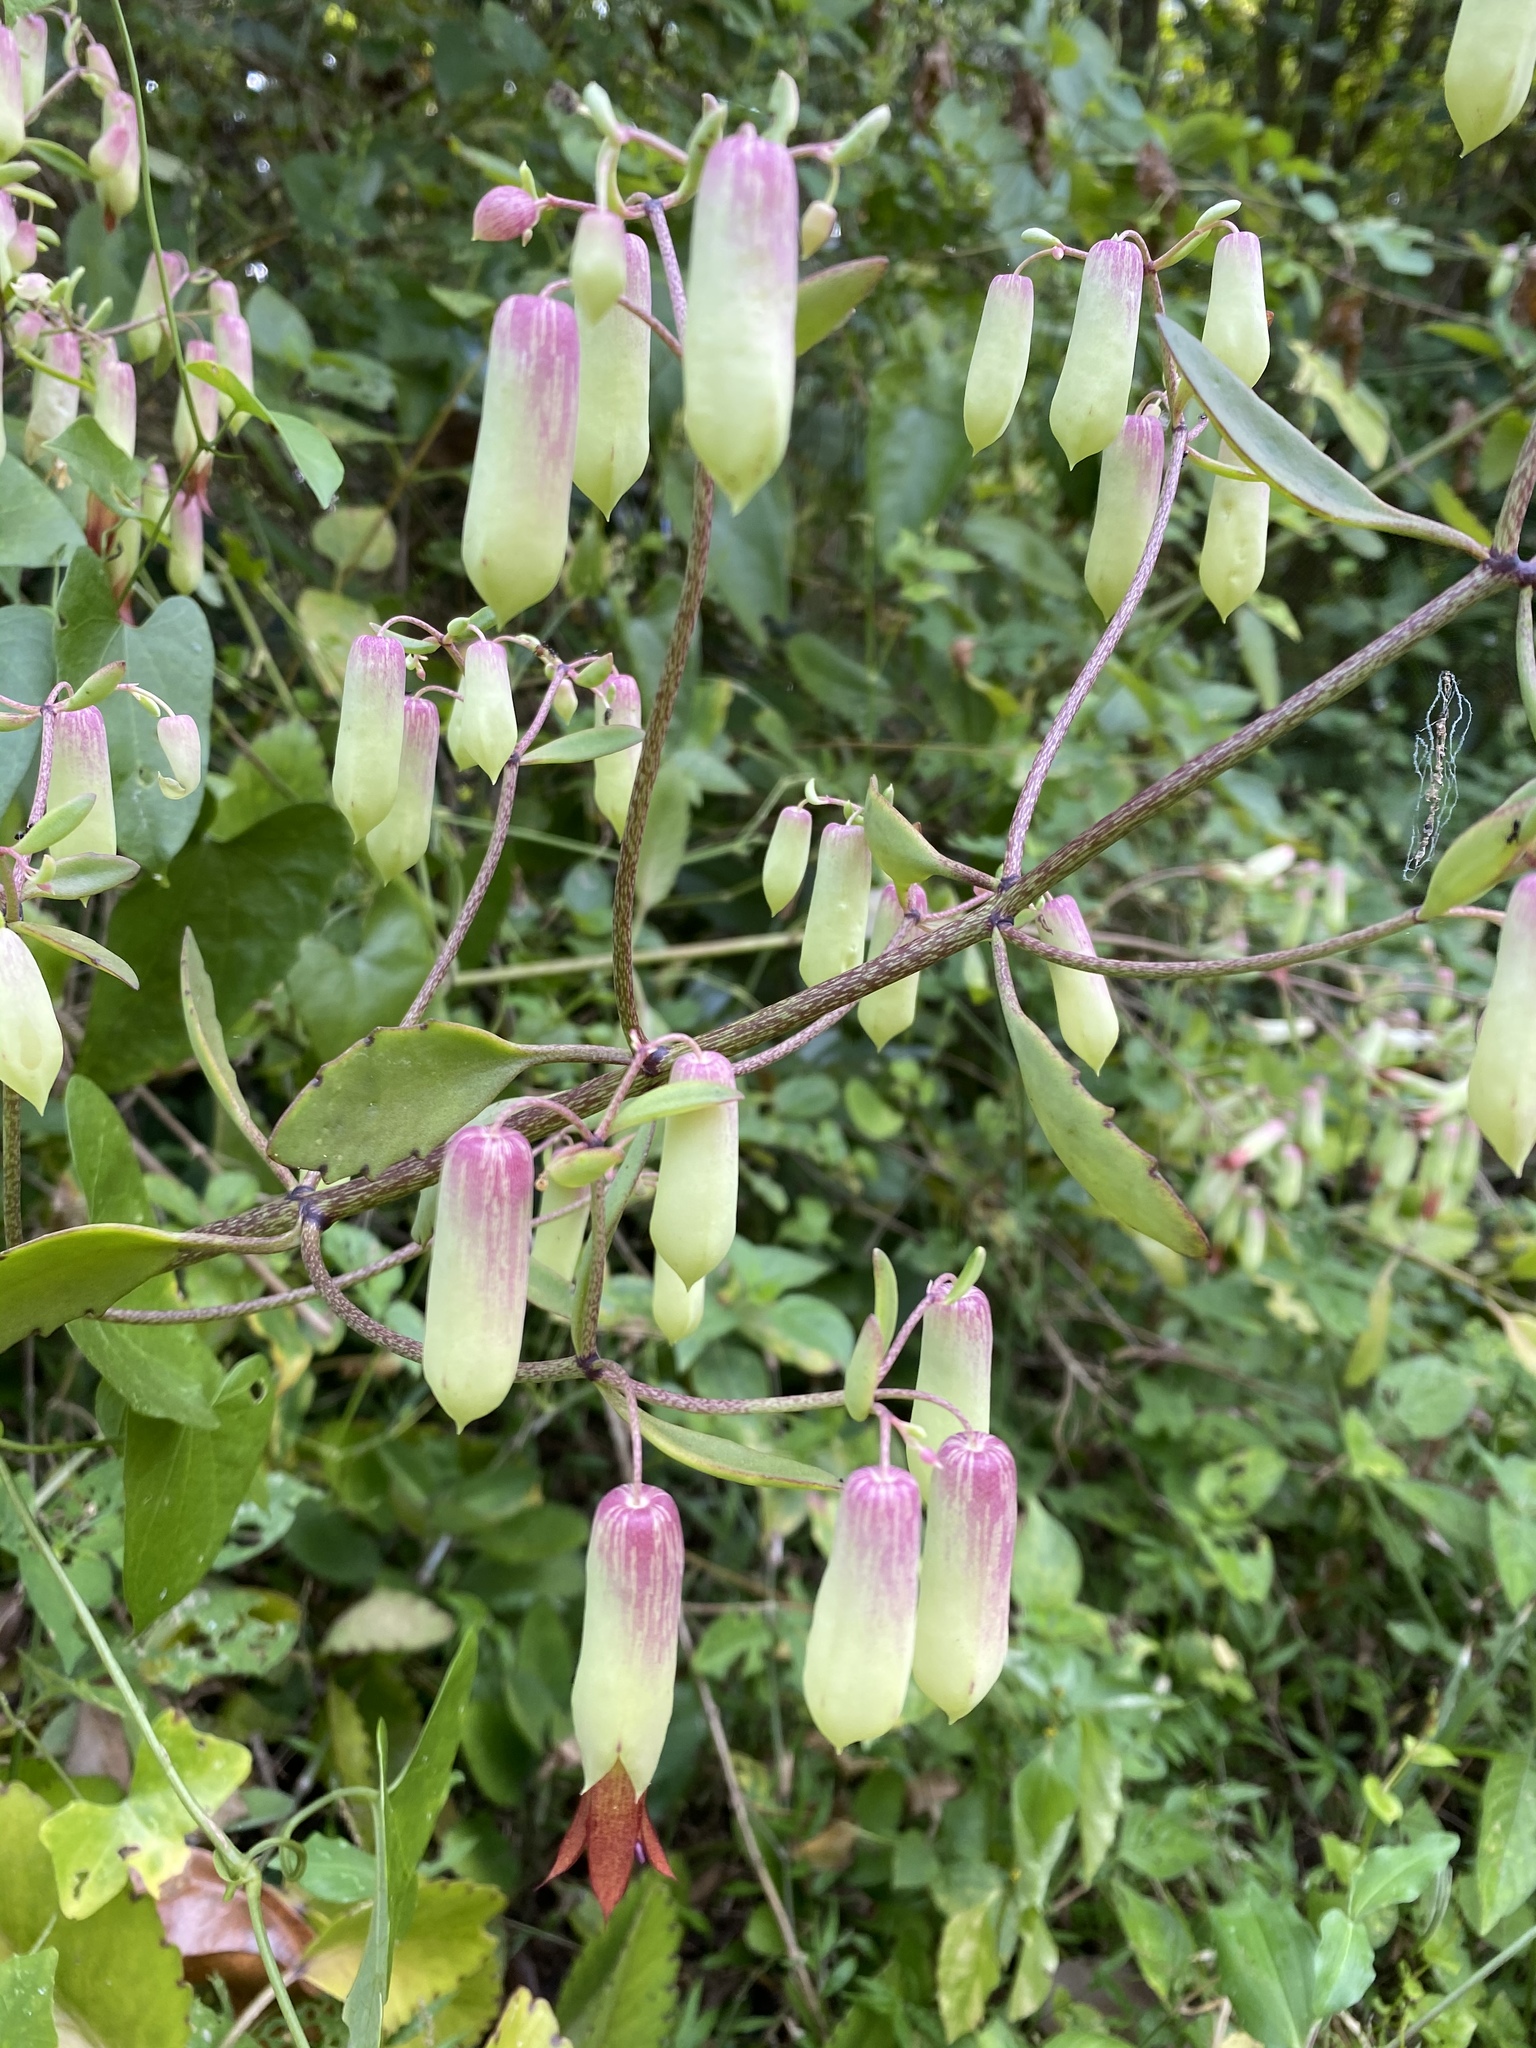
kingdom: Plantae
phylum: Tracheophyta
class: Magnoliopsida
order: Saxifragales
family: Crassulaceae
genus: Kalanchoe
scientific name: Kalanchoe pinnata
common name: Cathedral bells
